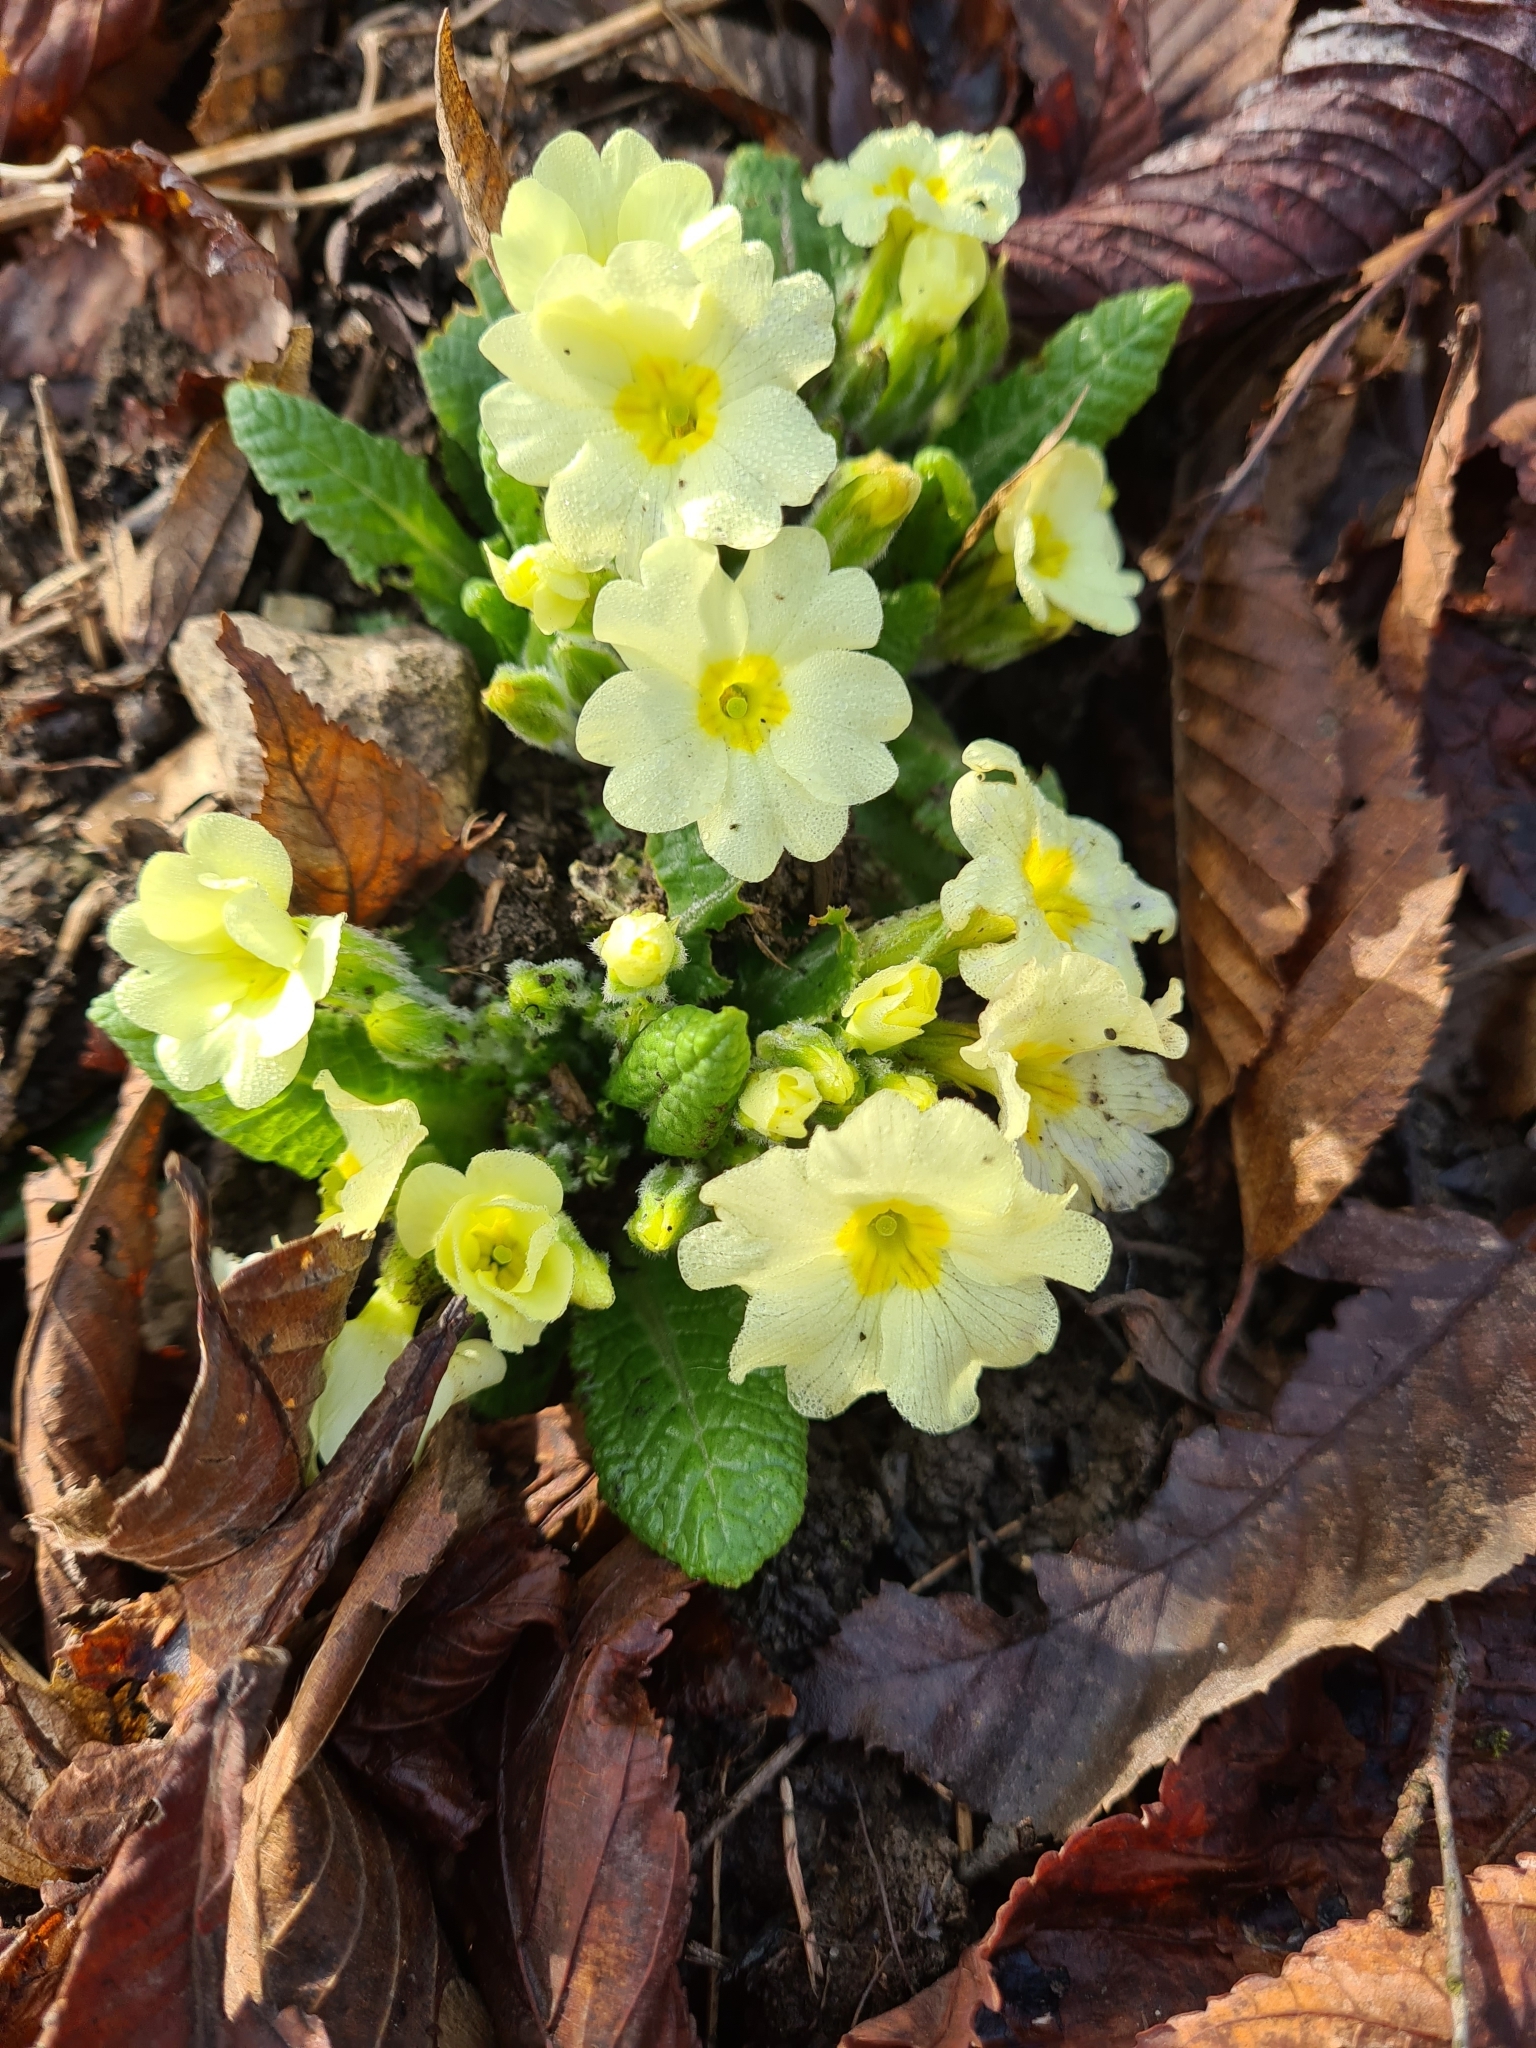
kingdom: Plantae
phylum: Tracheophyta
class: Magnoliopsida
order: Ericales
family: Primulaceae
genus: Primula
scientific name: Primula vulgaris
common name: Primrose
